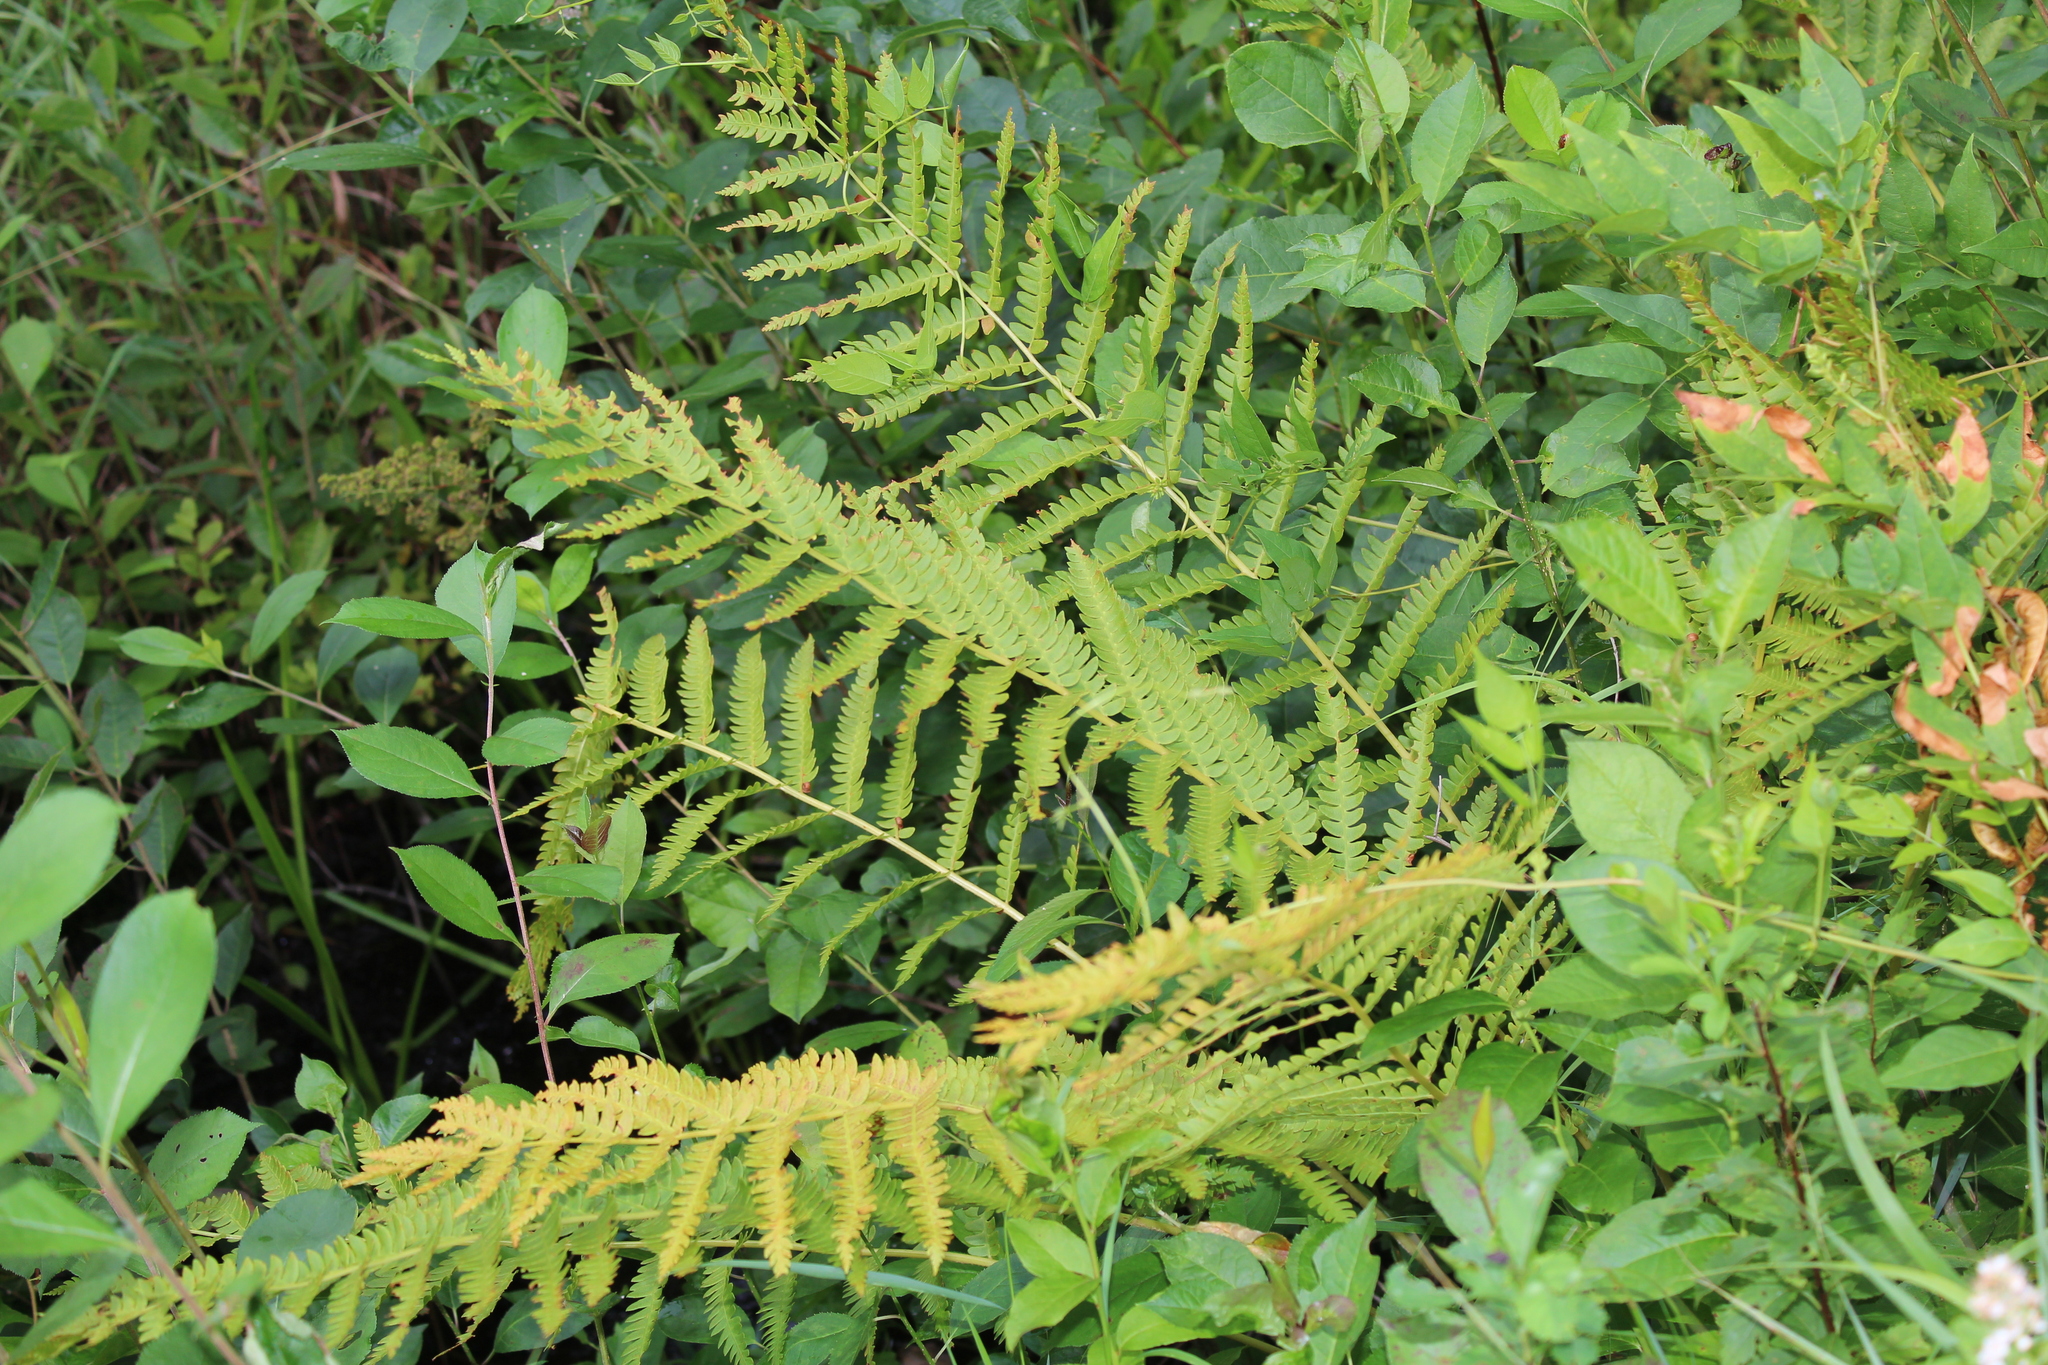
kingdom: Plantae
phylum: Tracheophyta
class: Polypodiopsida
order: Osmundales
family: Osmundaceae
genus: Osmundastrum
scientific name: Osmundastrum cinnamomeum
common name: Cinnamon fern
